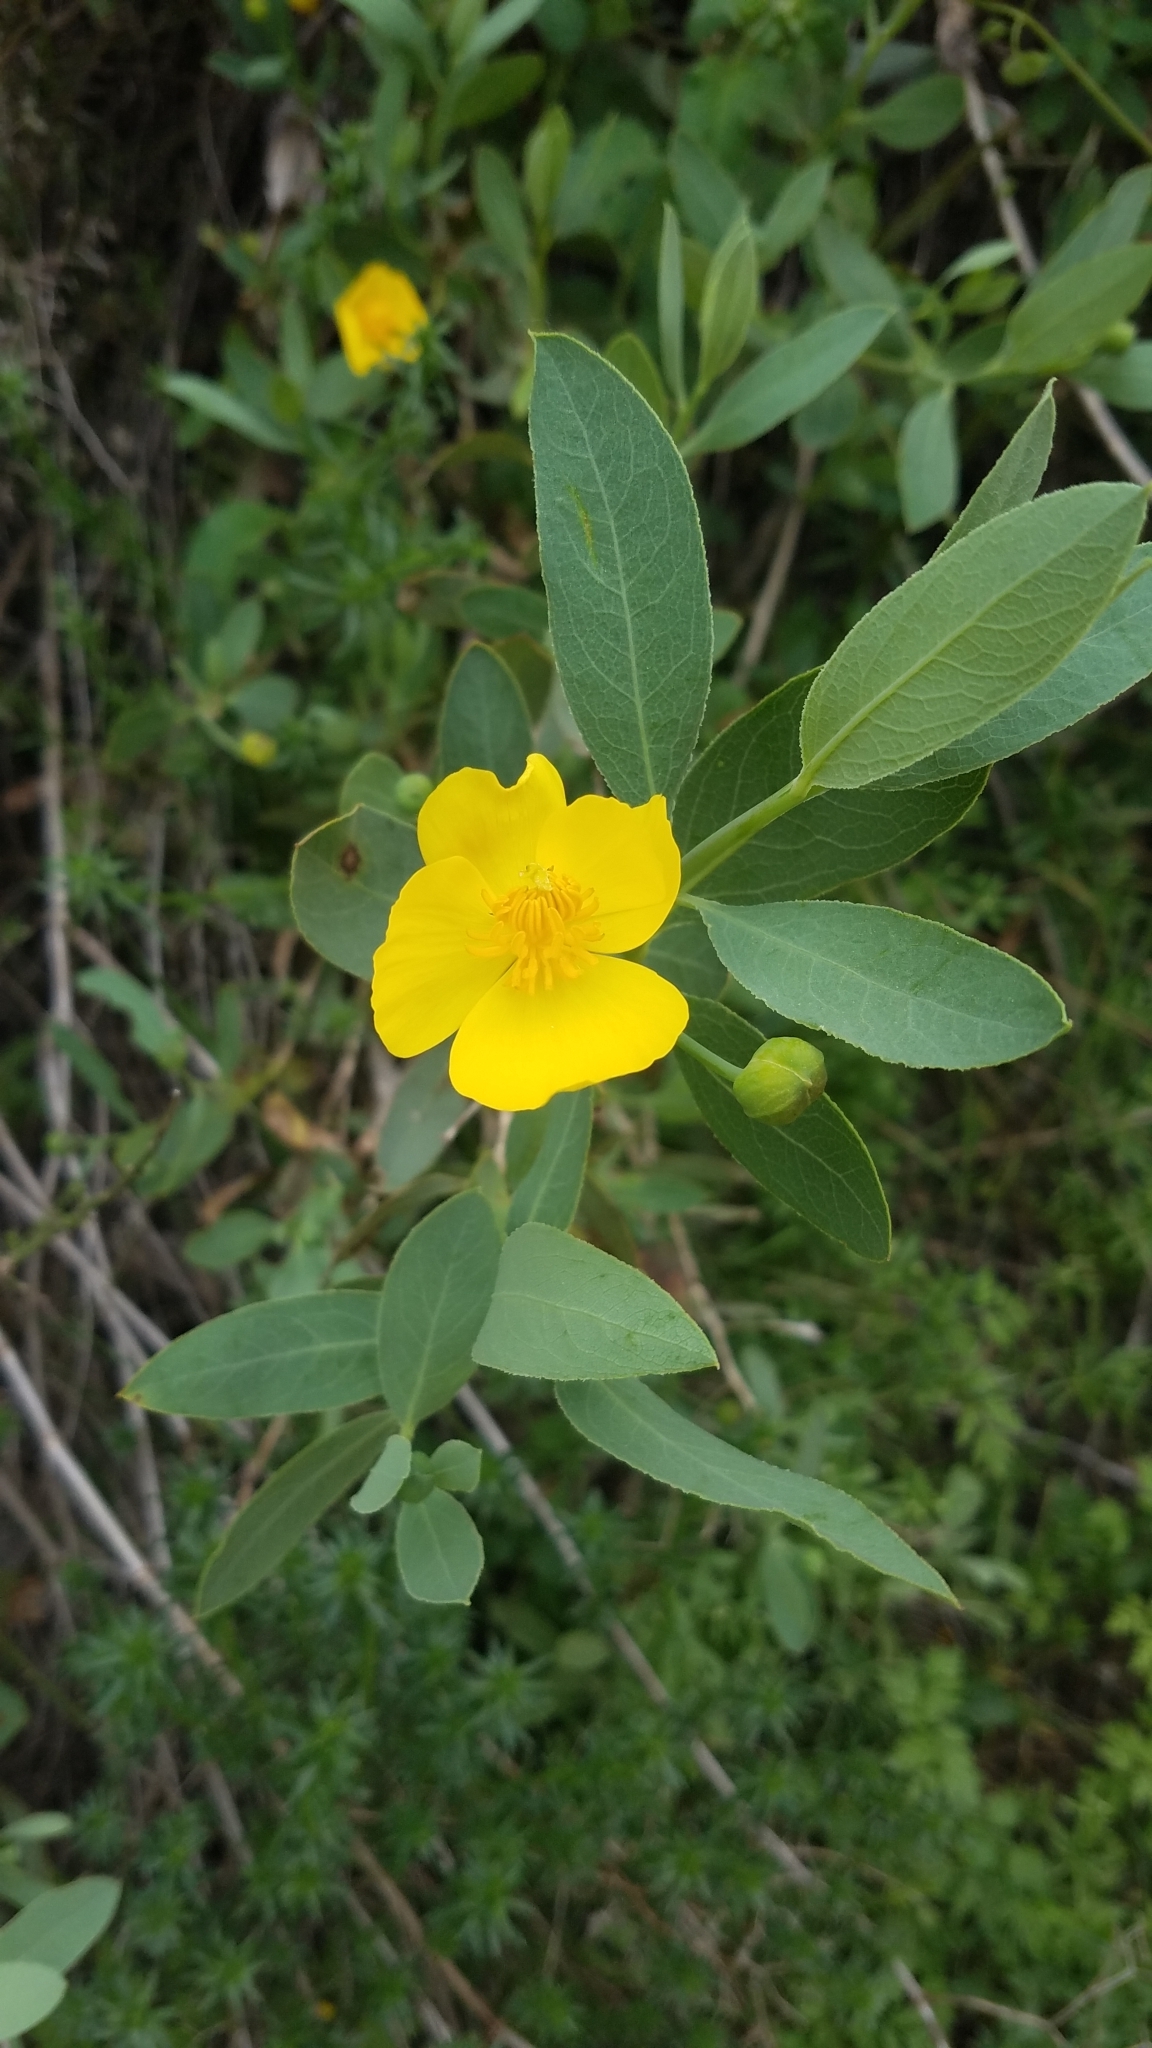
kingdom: Plantae
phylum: Tracheophyta
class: Magnoliopsida
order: Ranunculales
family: Papaveraceae
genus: Dendromecon
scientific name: Dendromecon rigida
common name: Tree poppy
